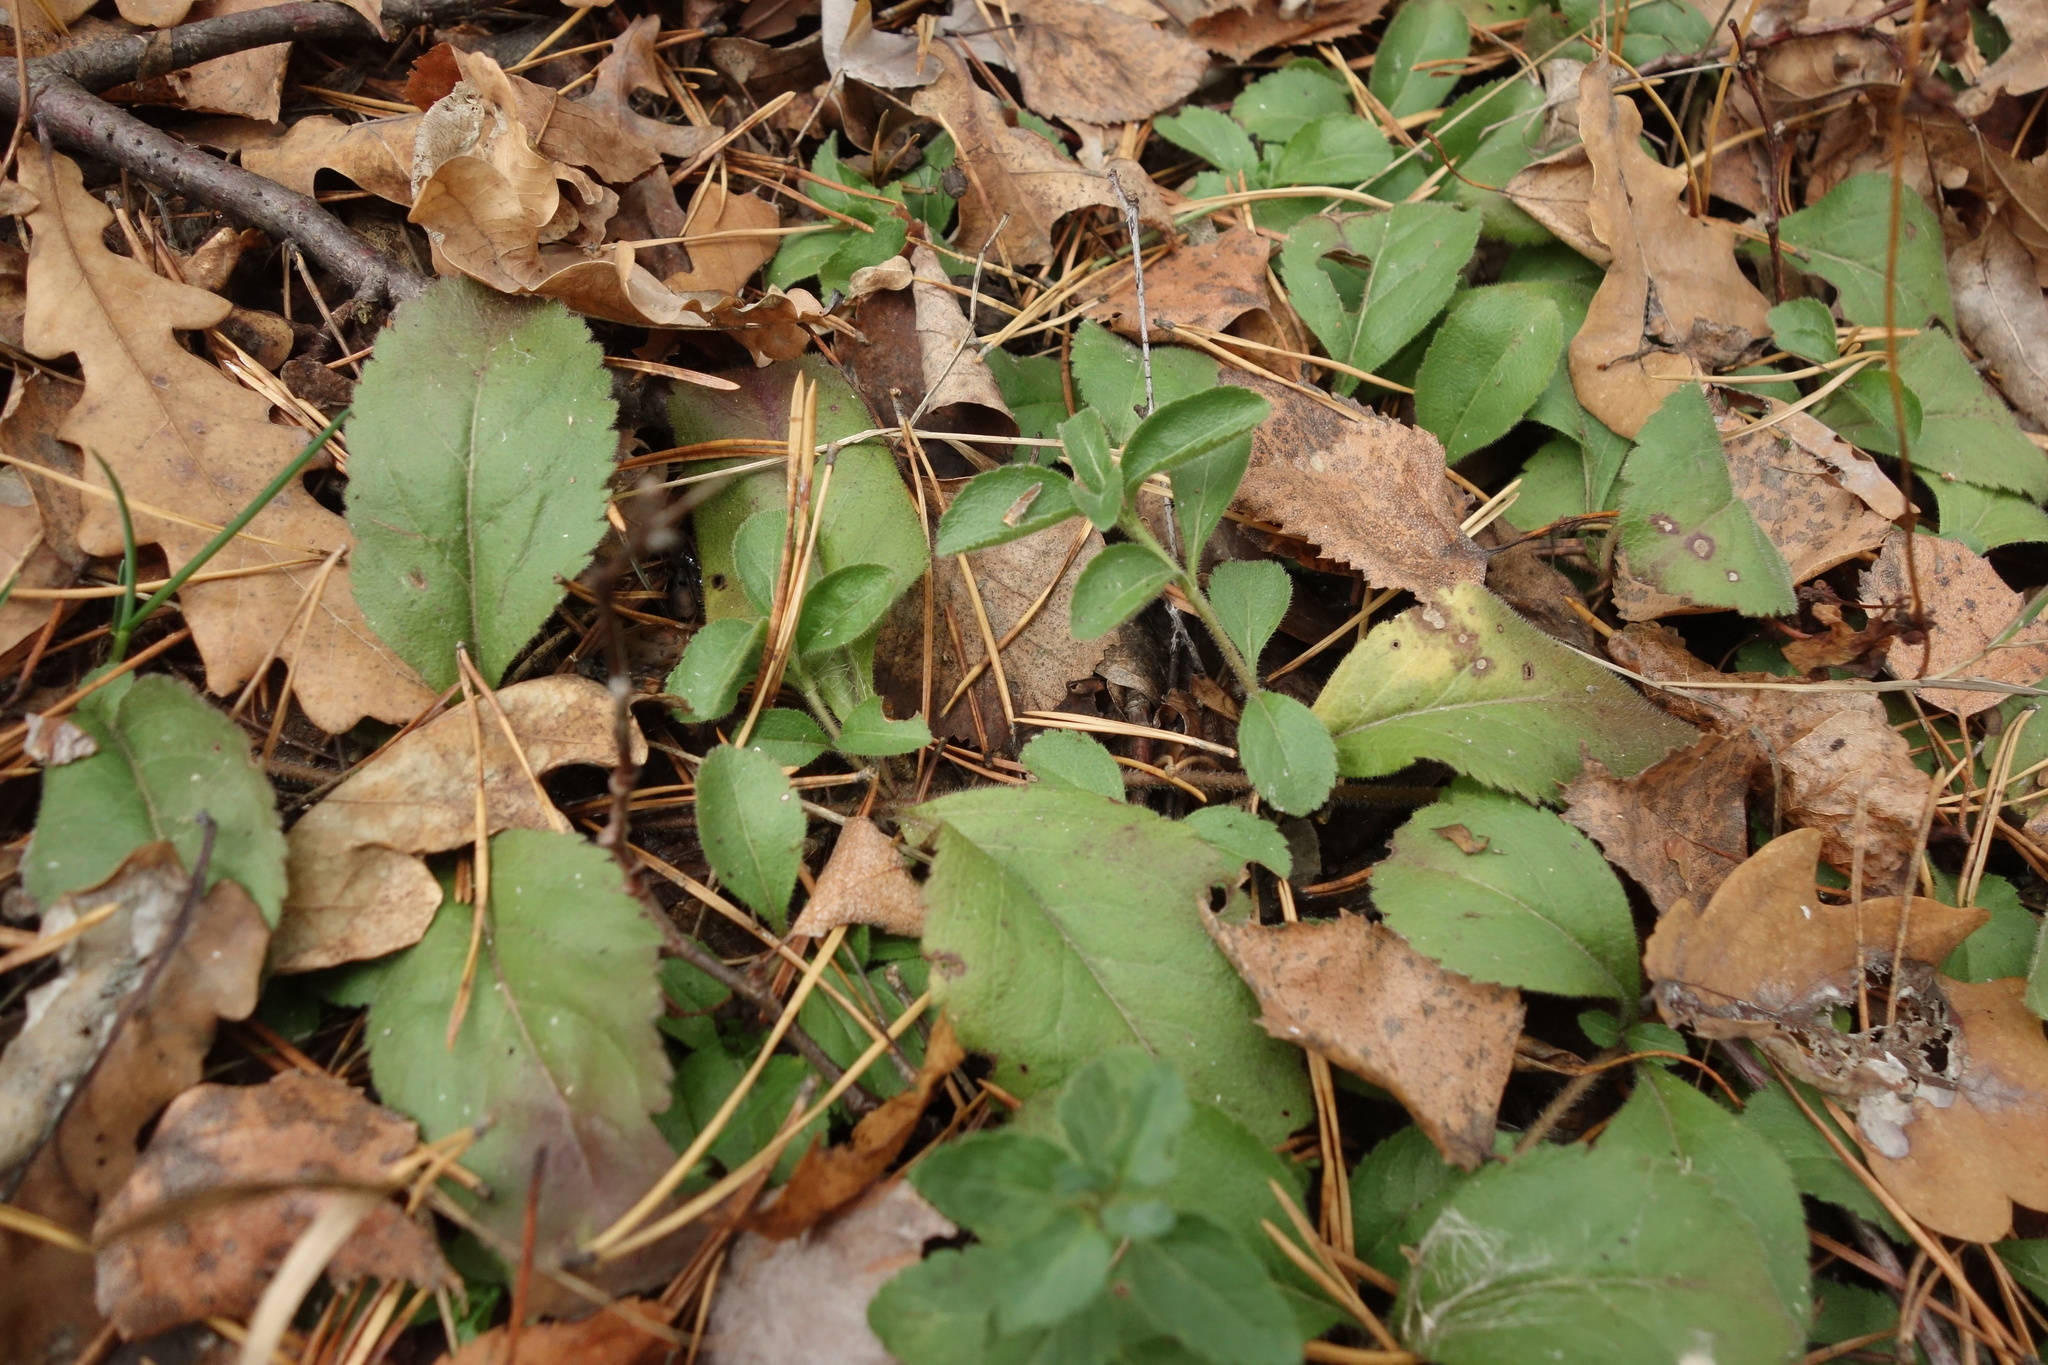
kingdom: Plantae
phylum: Tracheophyta
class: Magnoliopsida
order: Lamiales
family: Plantaginaceae
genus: Veronica
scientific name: Veronica officinalis
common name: Common speedwell
